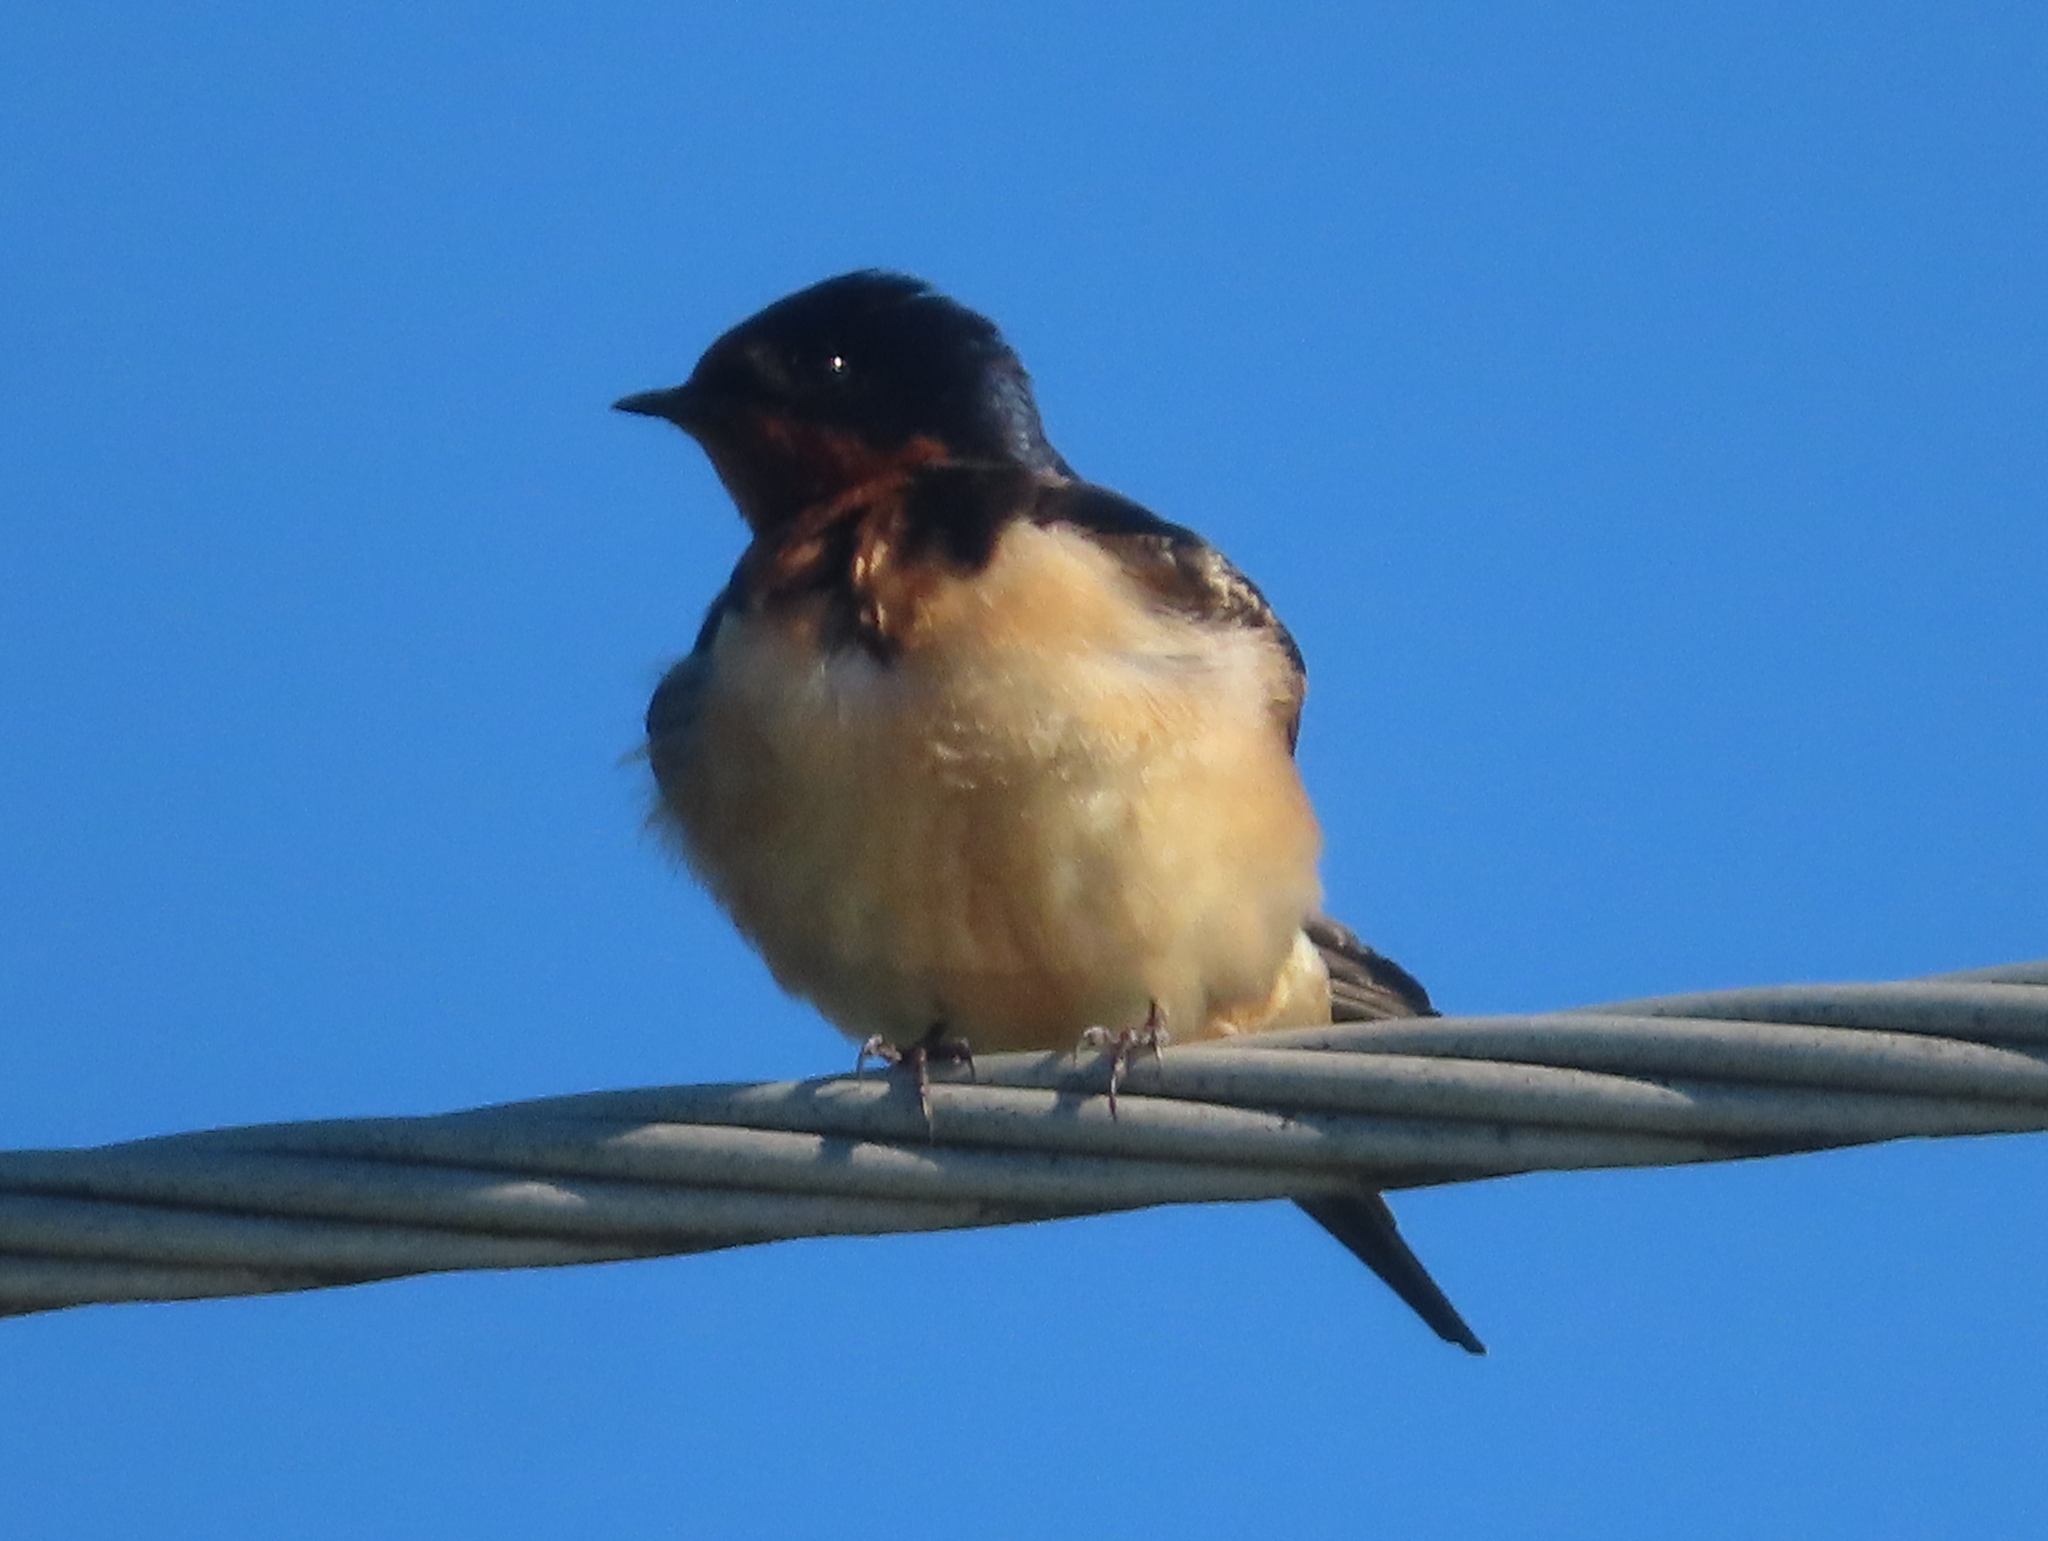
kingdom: Animalia
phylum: Chordata
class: Aves
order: Passeriformes
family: Hirundinidae
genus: Hirundo
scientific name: Hirundo rustica
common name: Barn swallow
